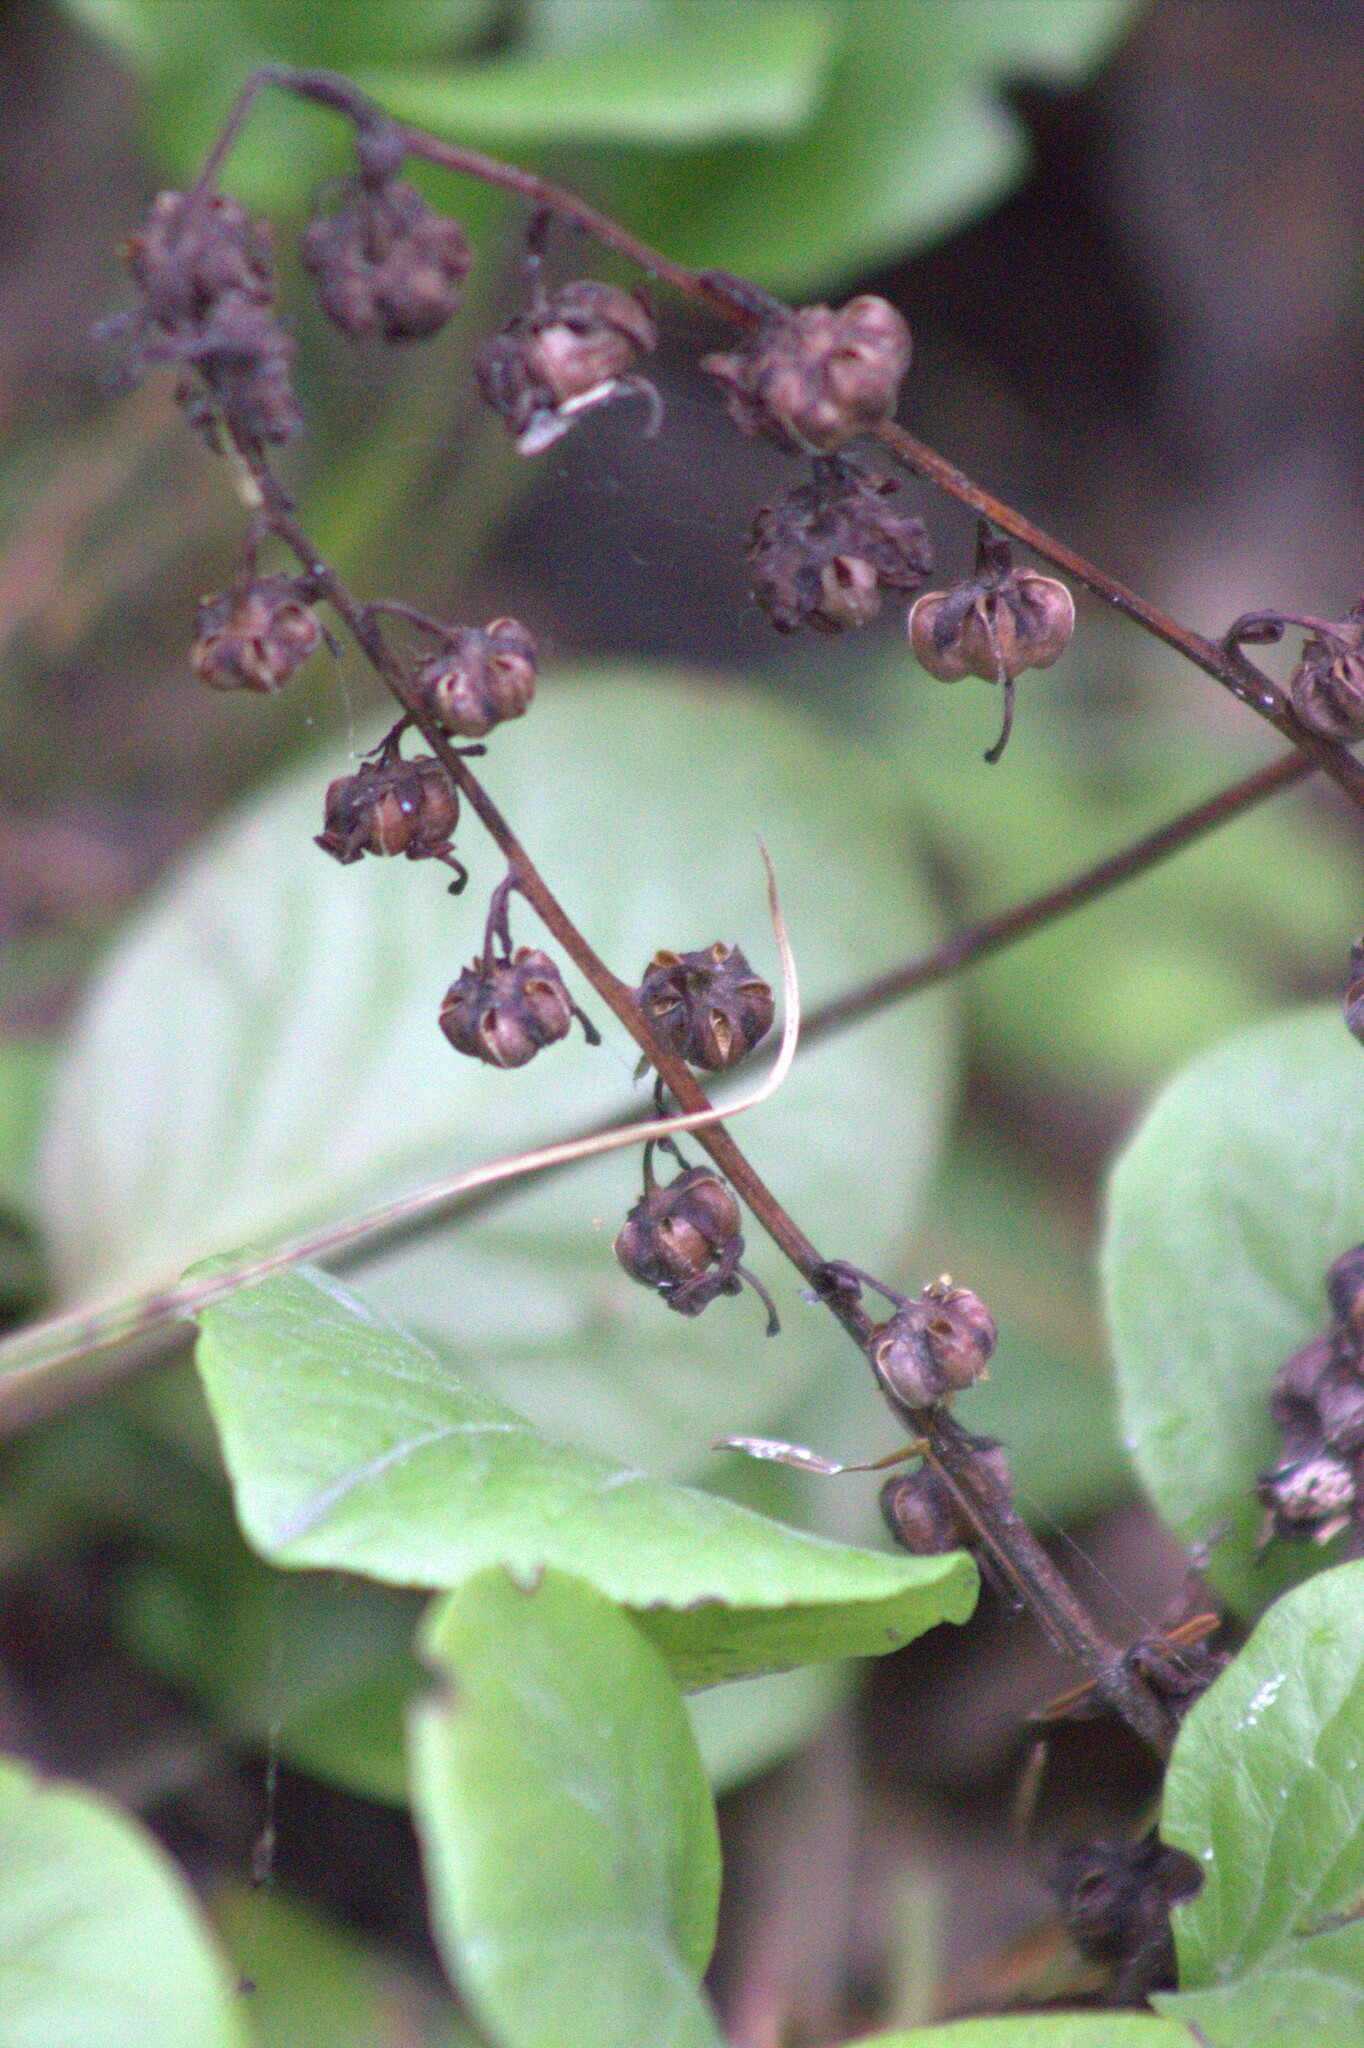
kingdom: Plantae
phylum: Tracheophyta
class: Magnoliopsida
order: Ericales
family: Ericaceae
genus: Pyrola
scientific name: Pyrola rotundifolia
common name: Round-leaved wintergreen
